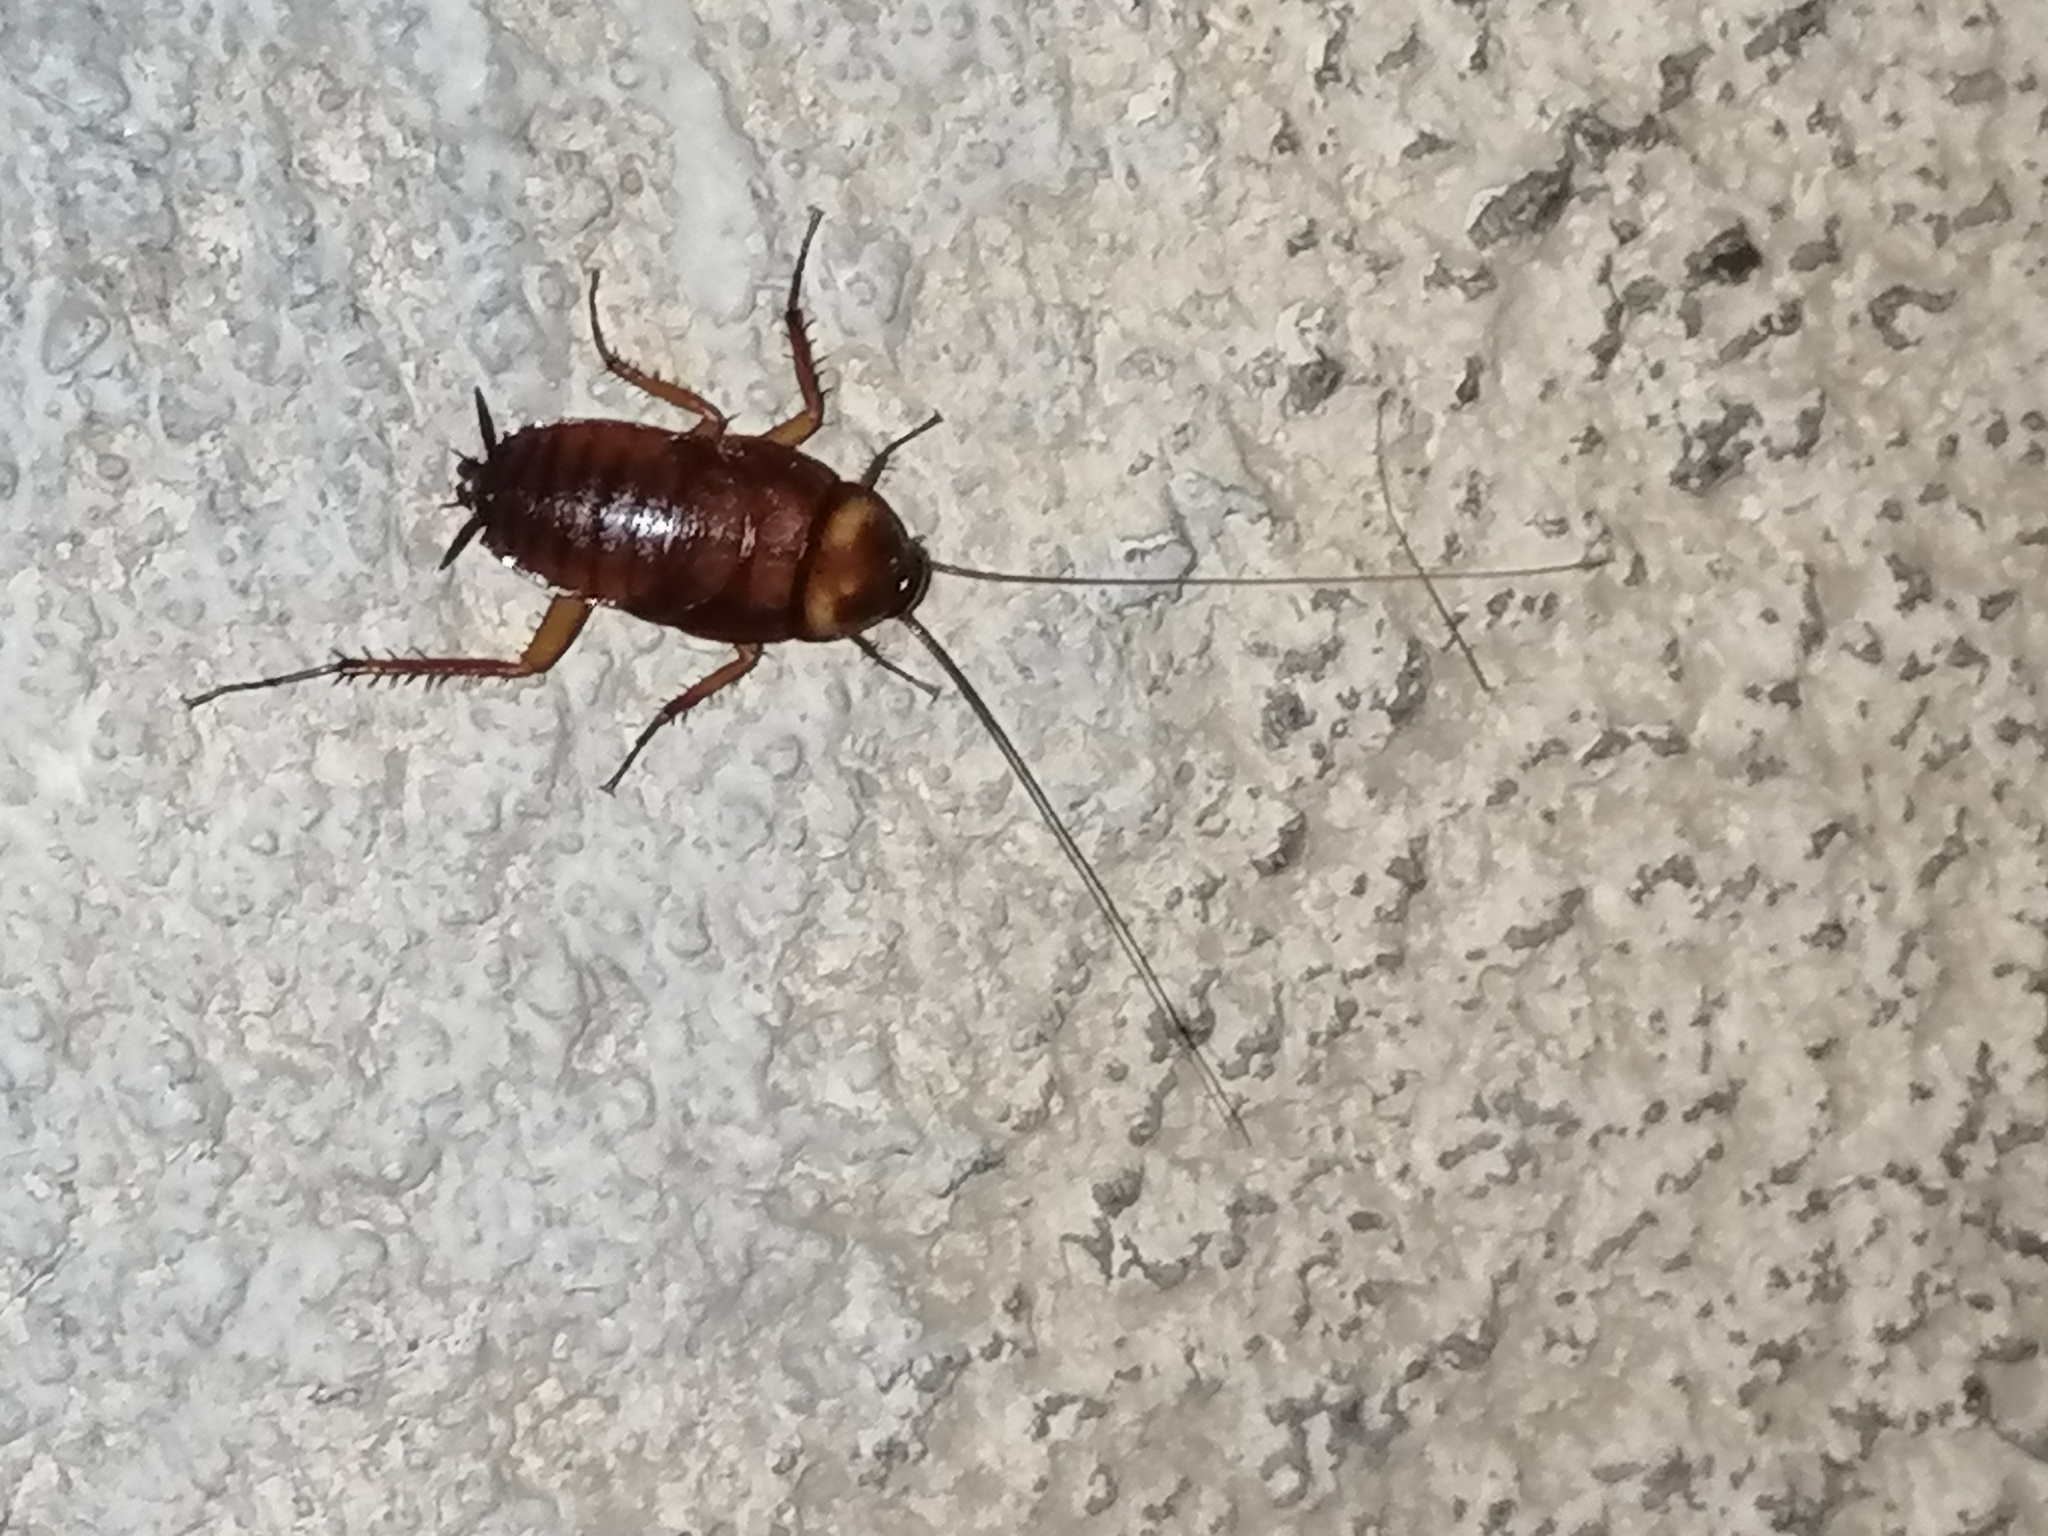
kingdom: Animalia
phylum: Arthropoda
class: Insecta
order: Blattodea
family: Blattidae
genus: Periplaneta
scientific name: Periplaneta americana
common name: American cockroach
